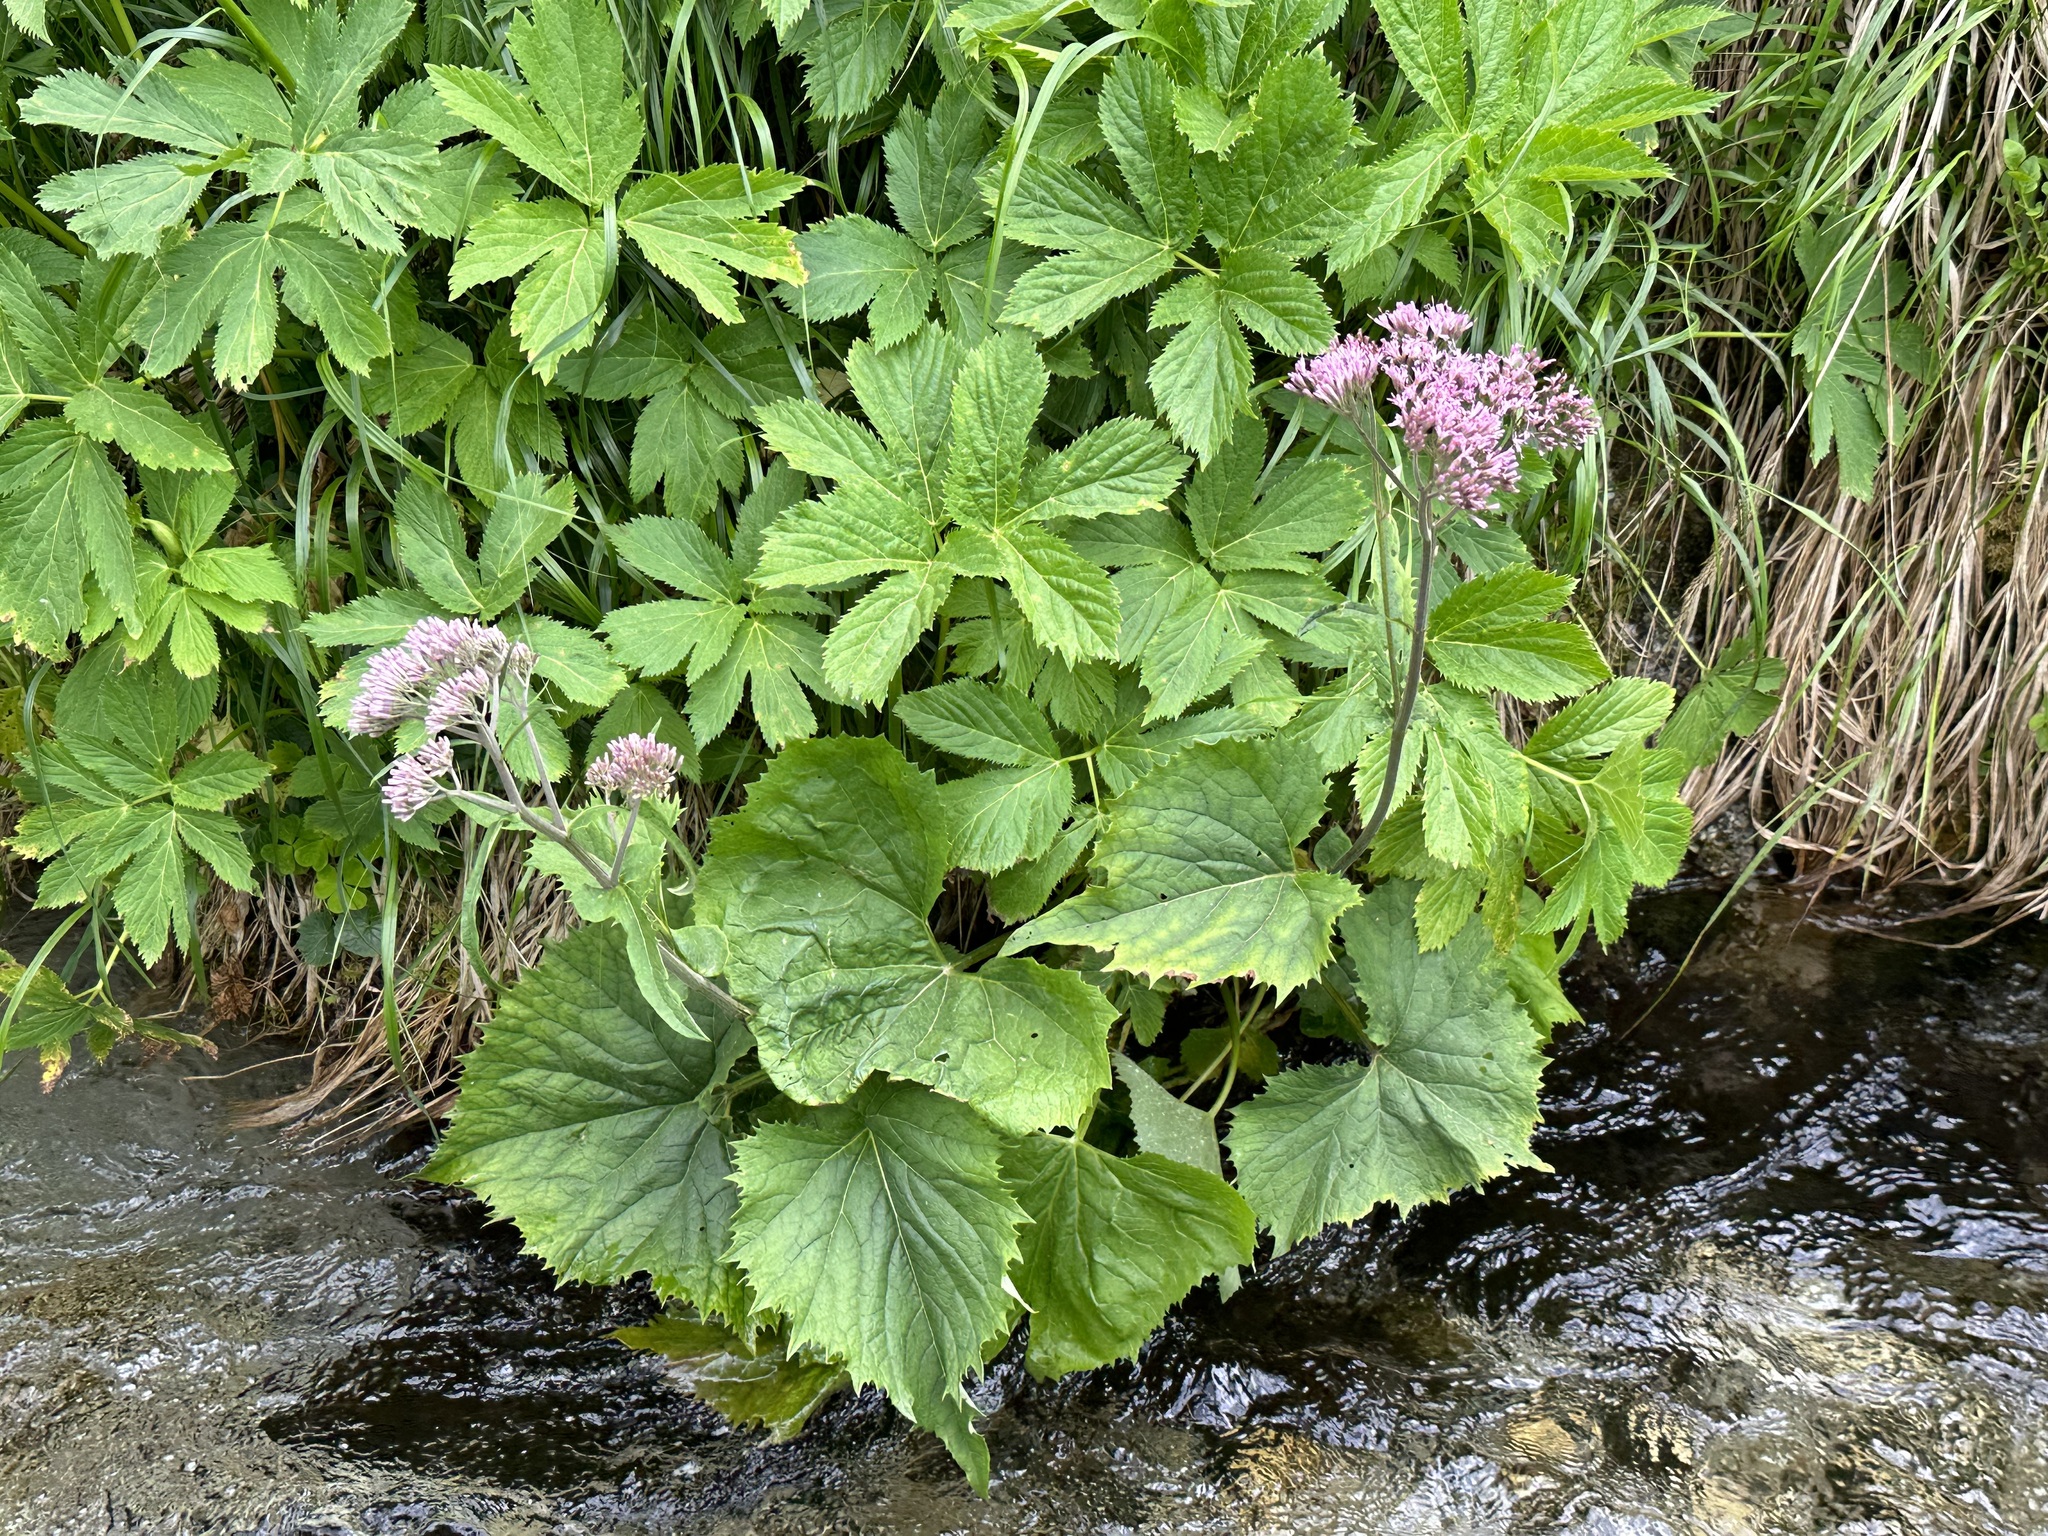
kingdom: Plantae
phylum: Tracheophyta
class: Magnoliopsida
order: Asterales
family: Asteraceae
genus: Adenostyles
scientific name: Adenostyles alliariae
